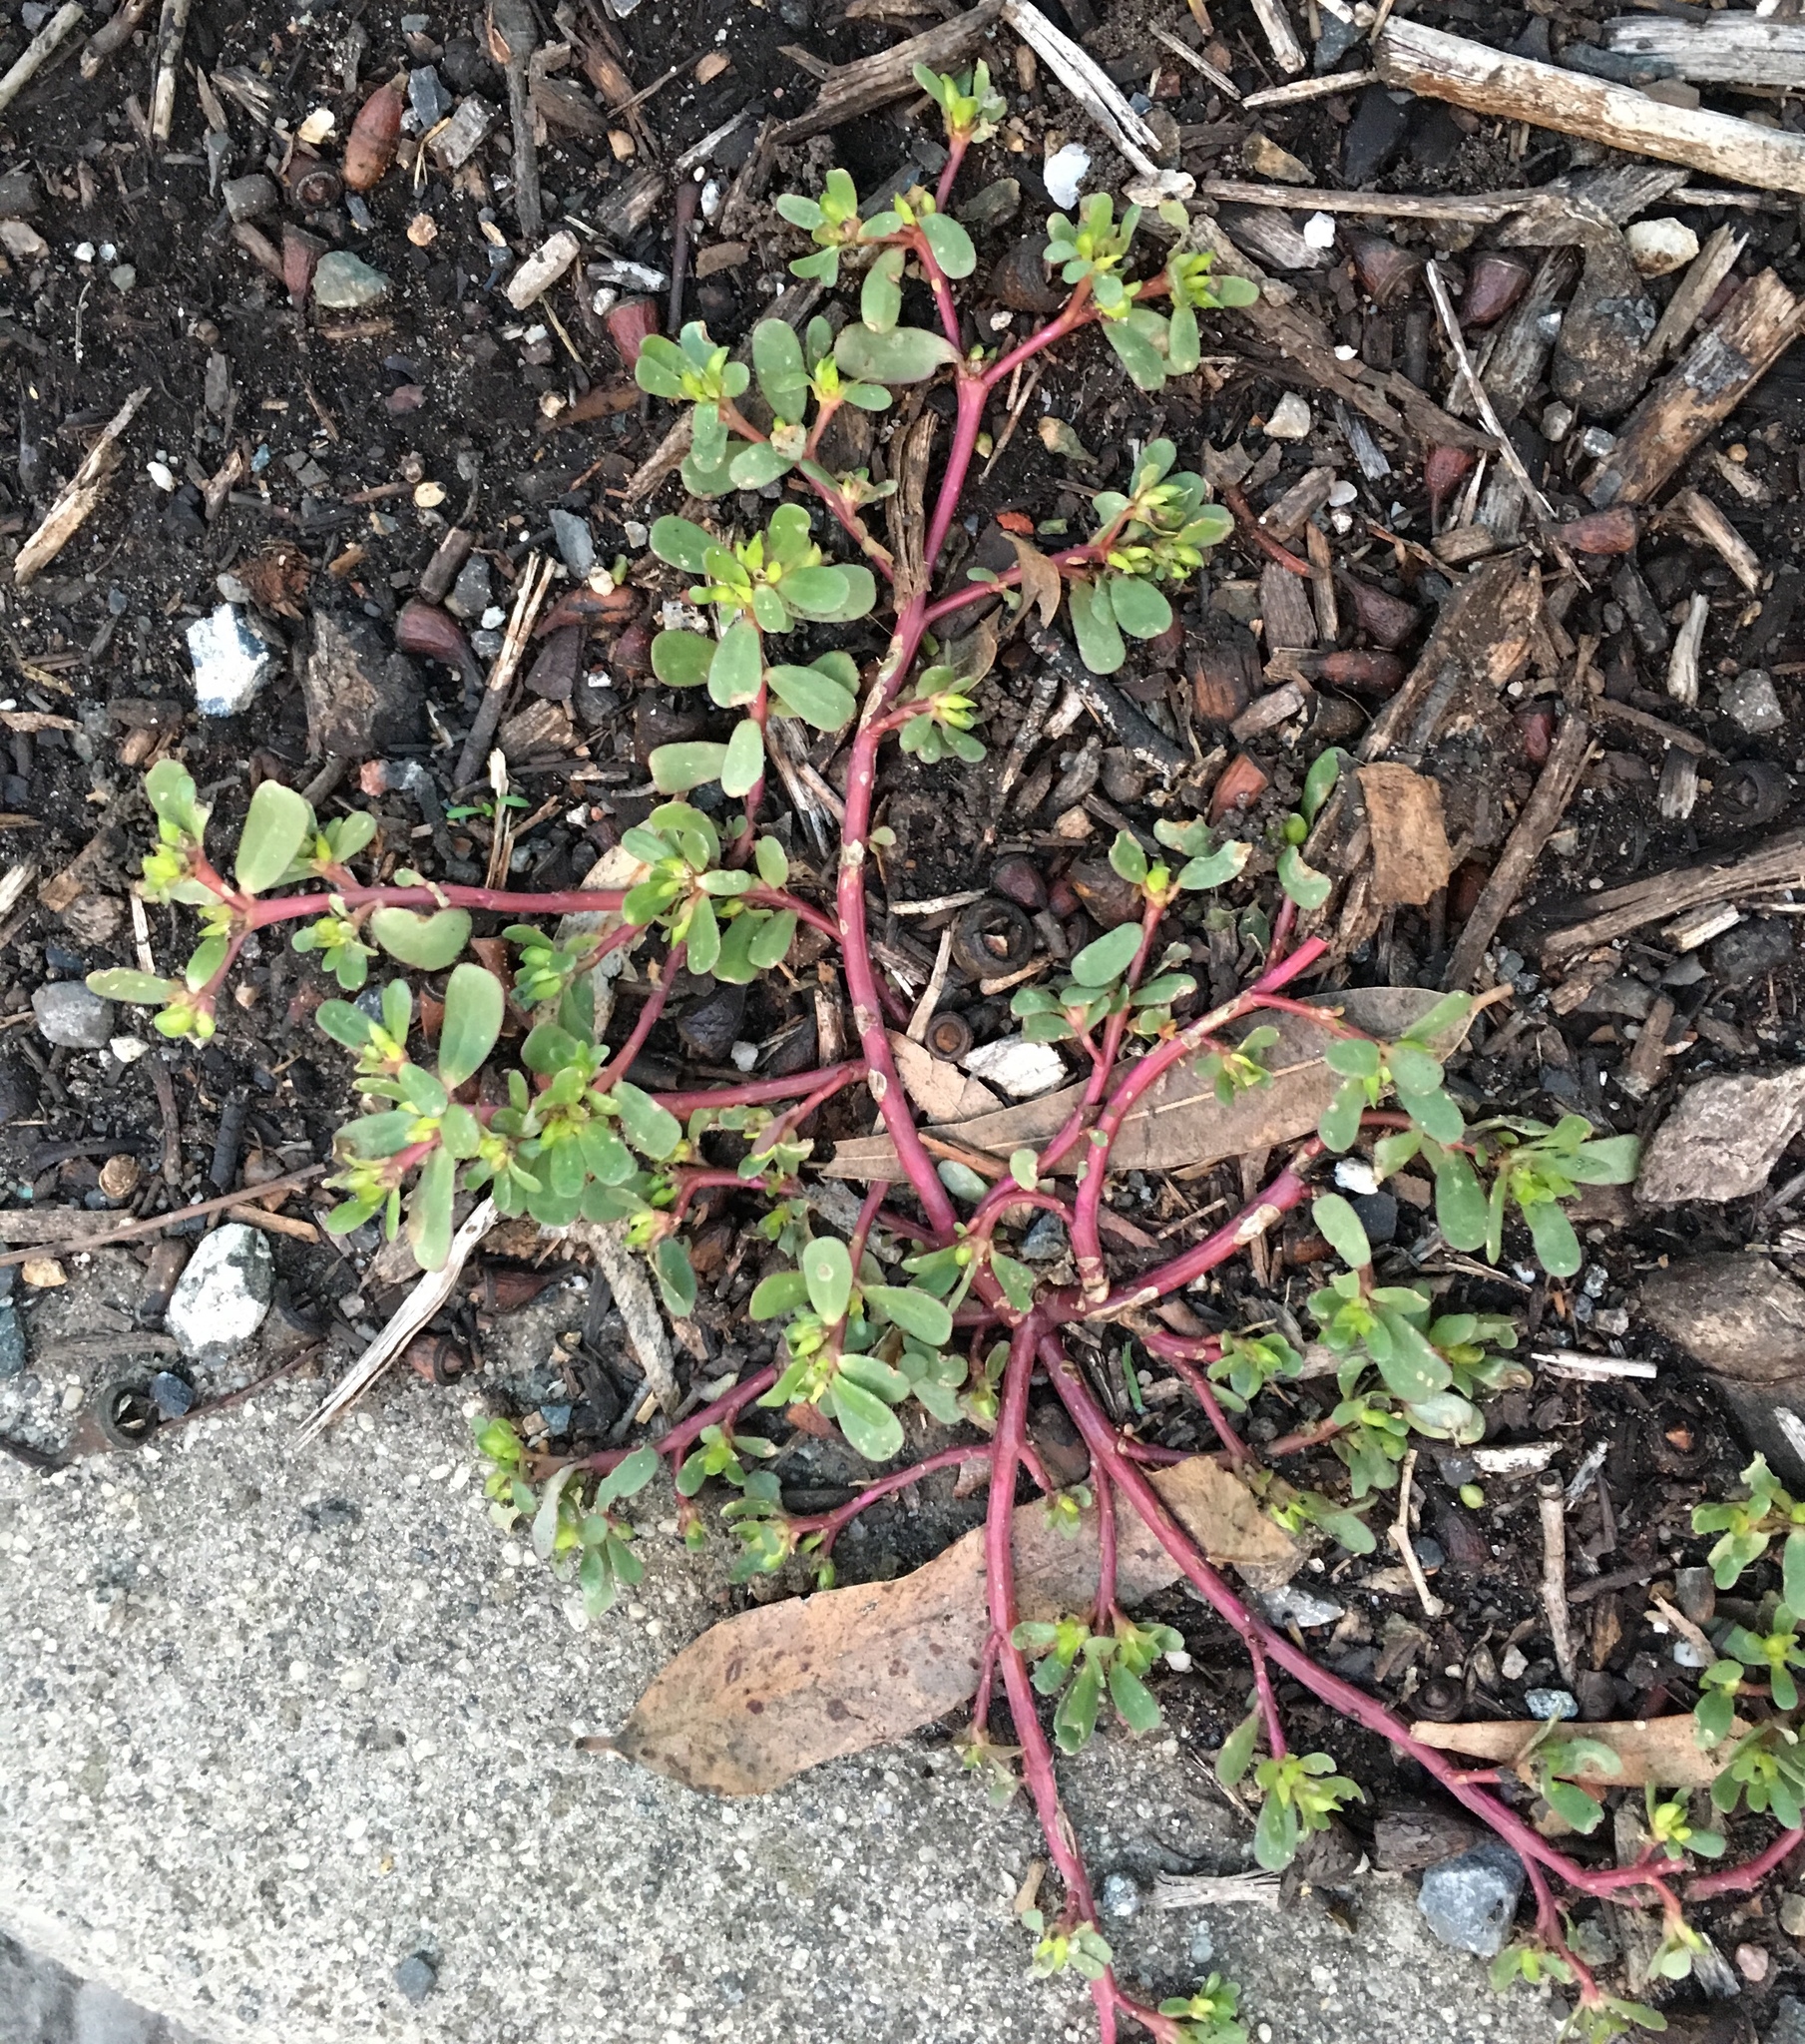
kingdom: Plantae
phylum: Tracheophyta
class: Magnoliopsida
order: Caryophyllales
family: Portulacaceae
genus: Portulaca
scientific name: Portulaca oleracea
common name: Common purslane
